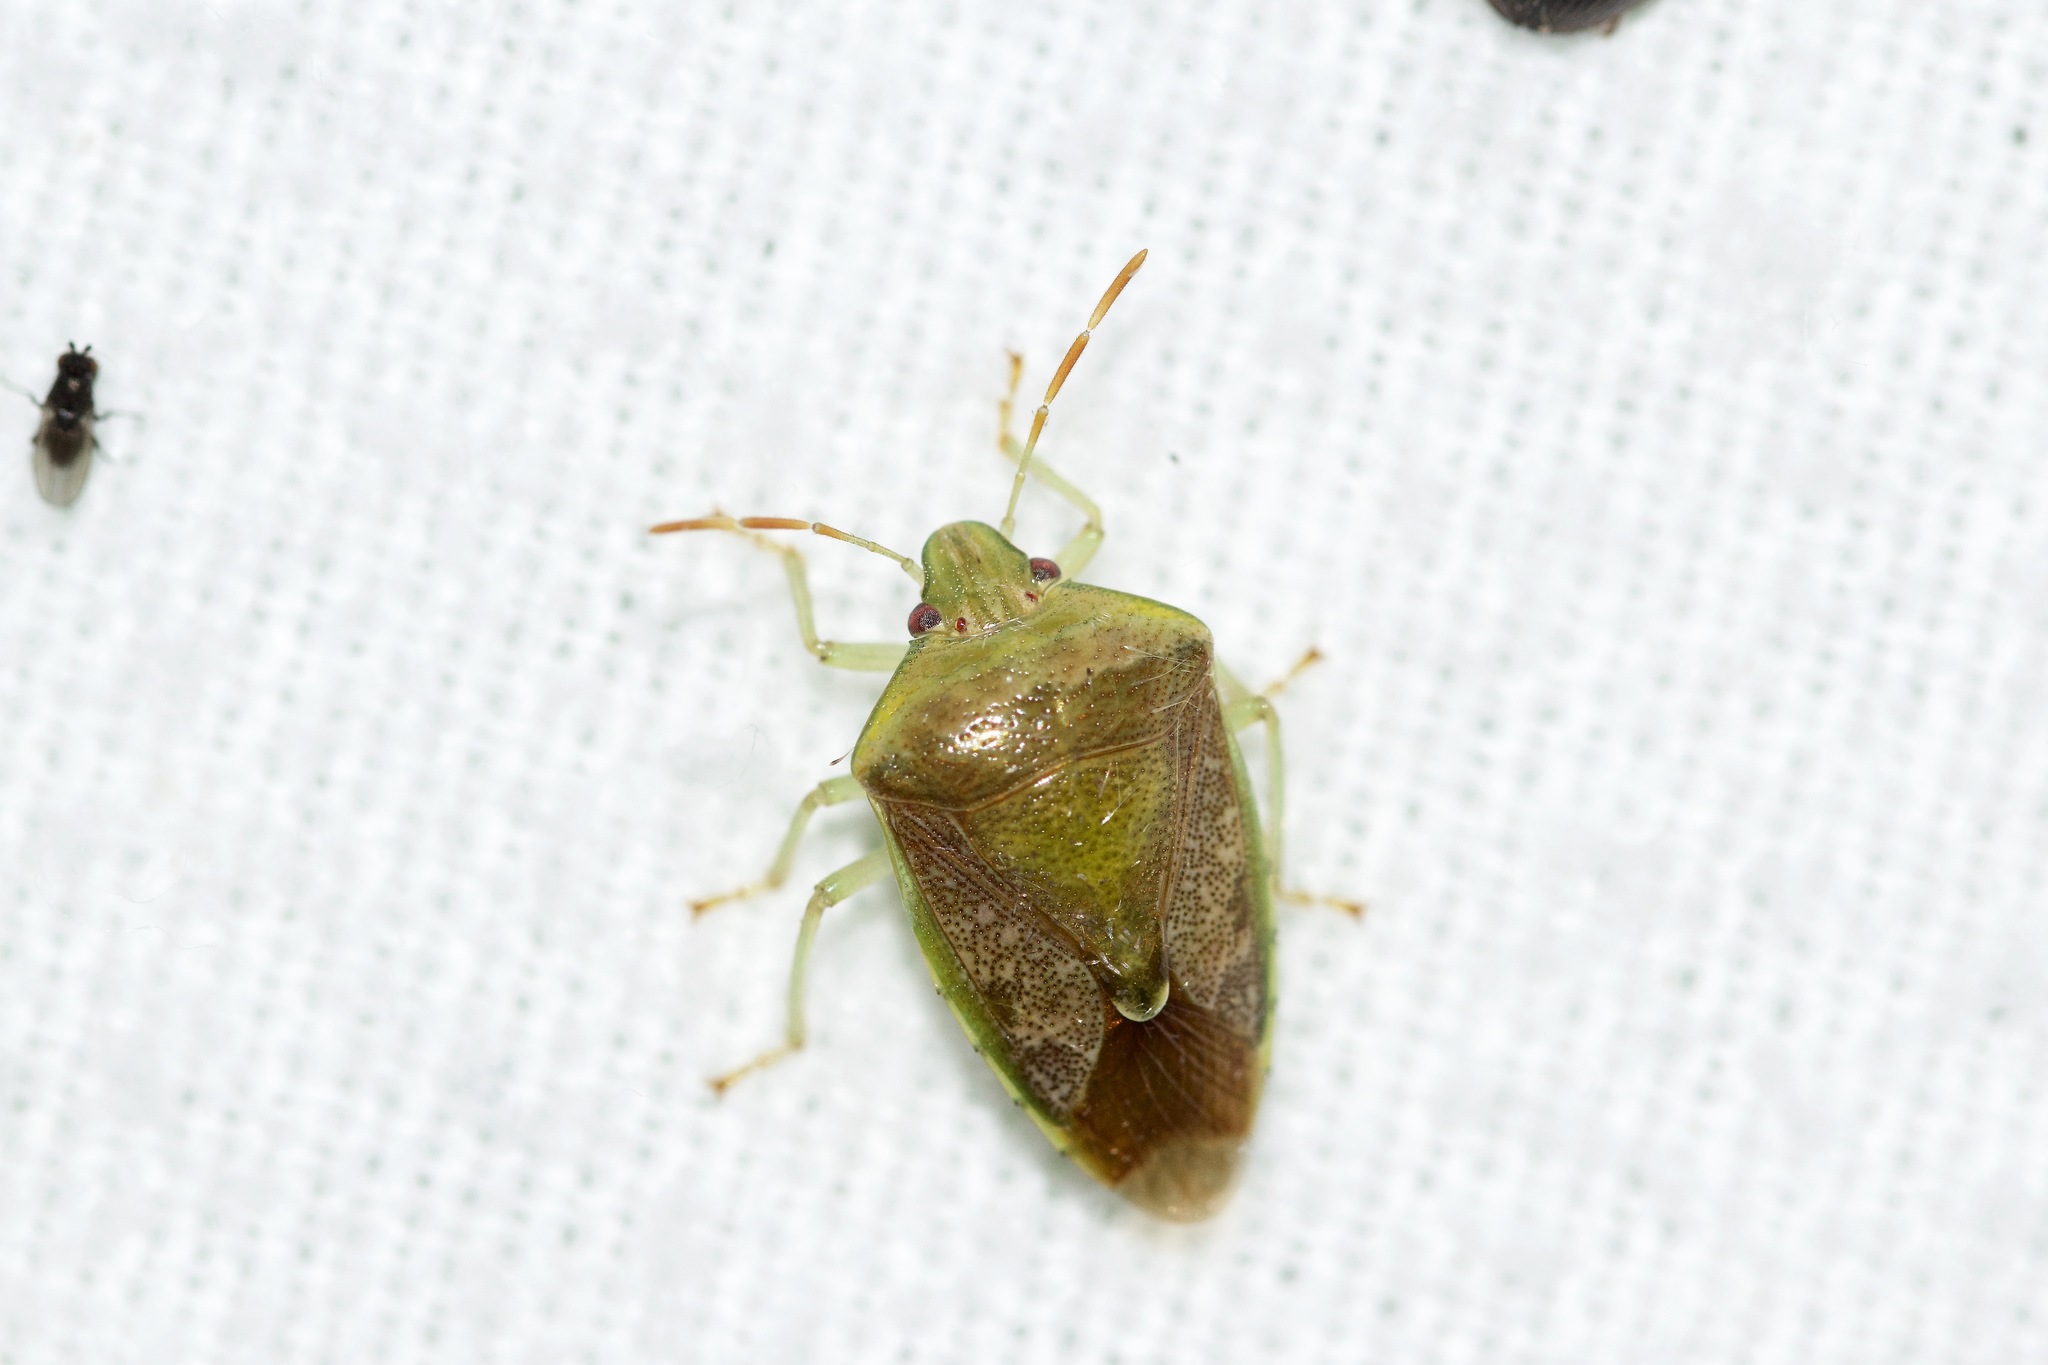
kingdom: Animalia
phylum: Arthropoda
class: Insecta
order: Hemiptera
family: Pentatomidae
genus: Banasa
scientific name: Banasa calva
